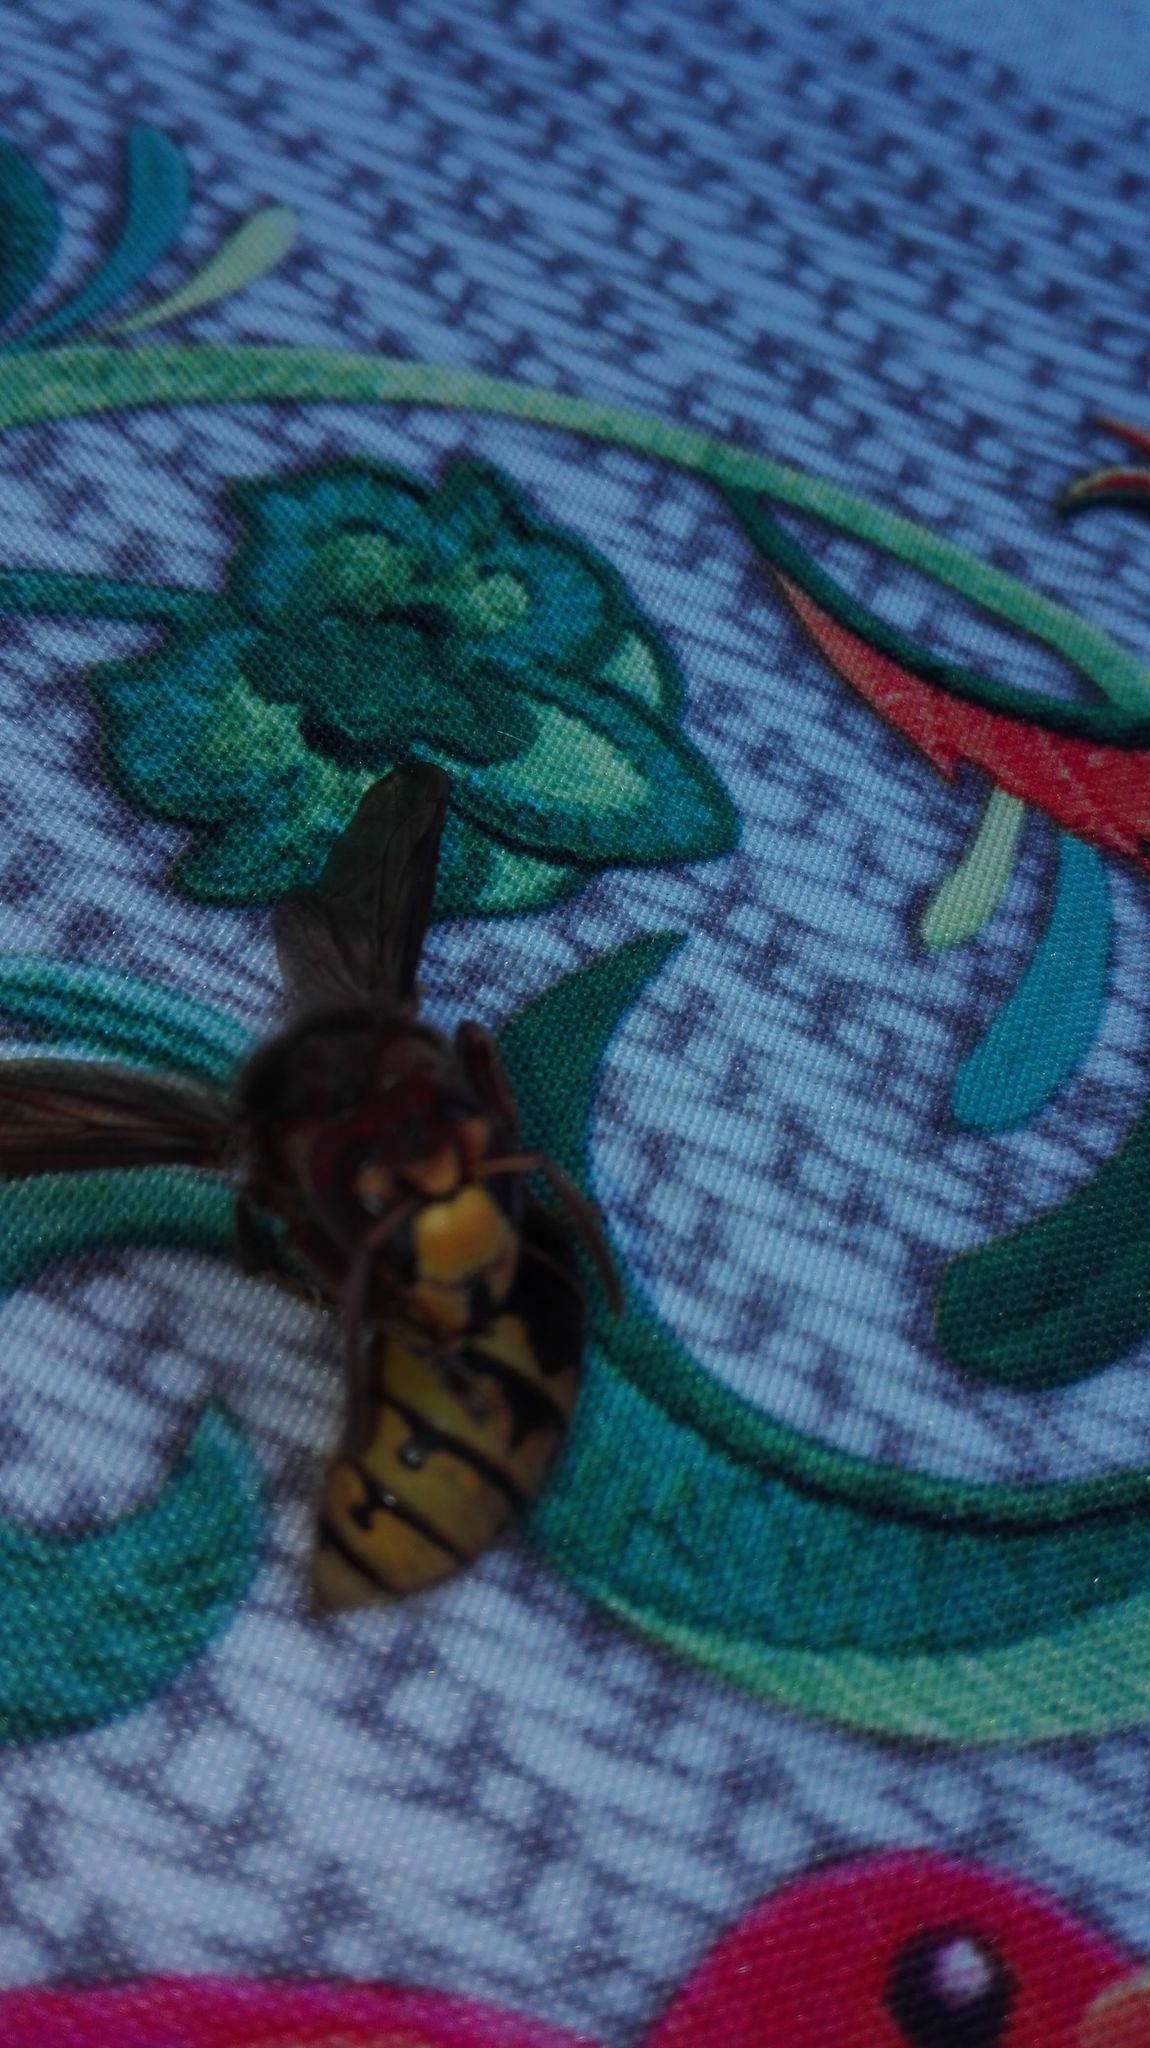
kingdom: Animalia
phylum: Arthropoda
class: Insecta
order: Hymenoptera
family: Vespidae
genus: Vespa
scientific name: Vespa crabro
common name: Hornet
